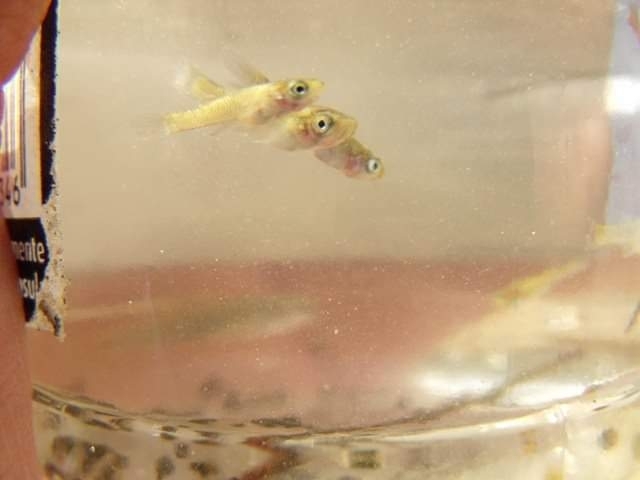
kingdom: Animalia
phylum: Chordata
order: Cyprinodontiformes
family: Poeciliidae
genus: Gambusia
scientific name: Gambusia holbrooki
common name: Eastern mosquitofish
